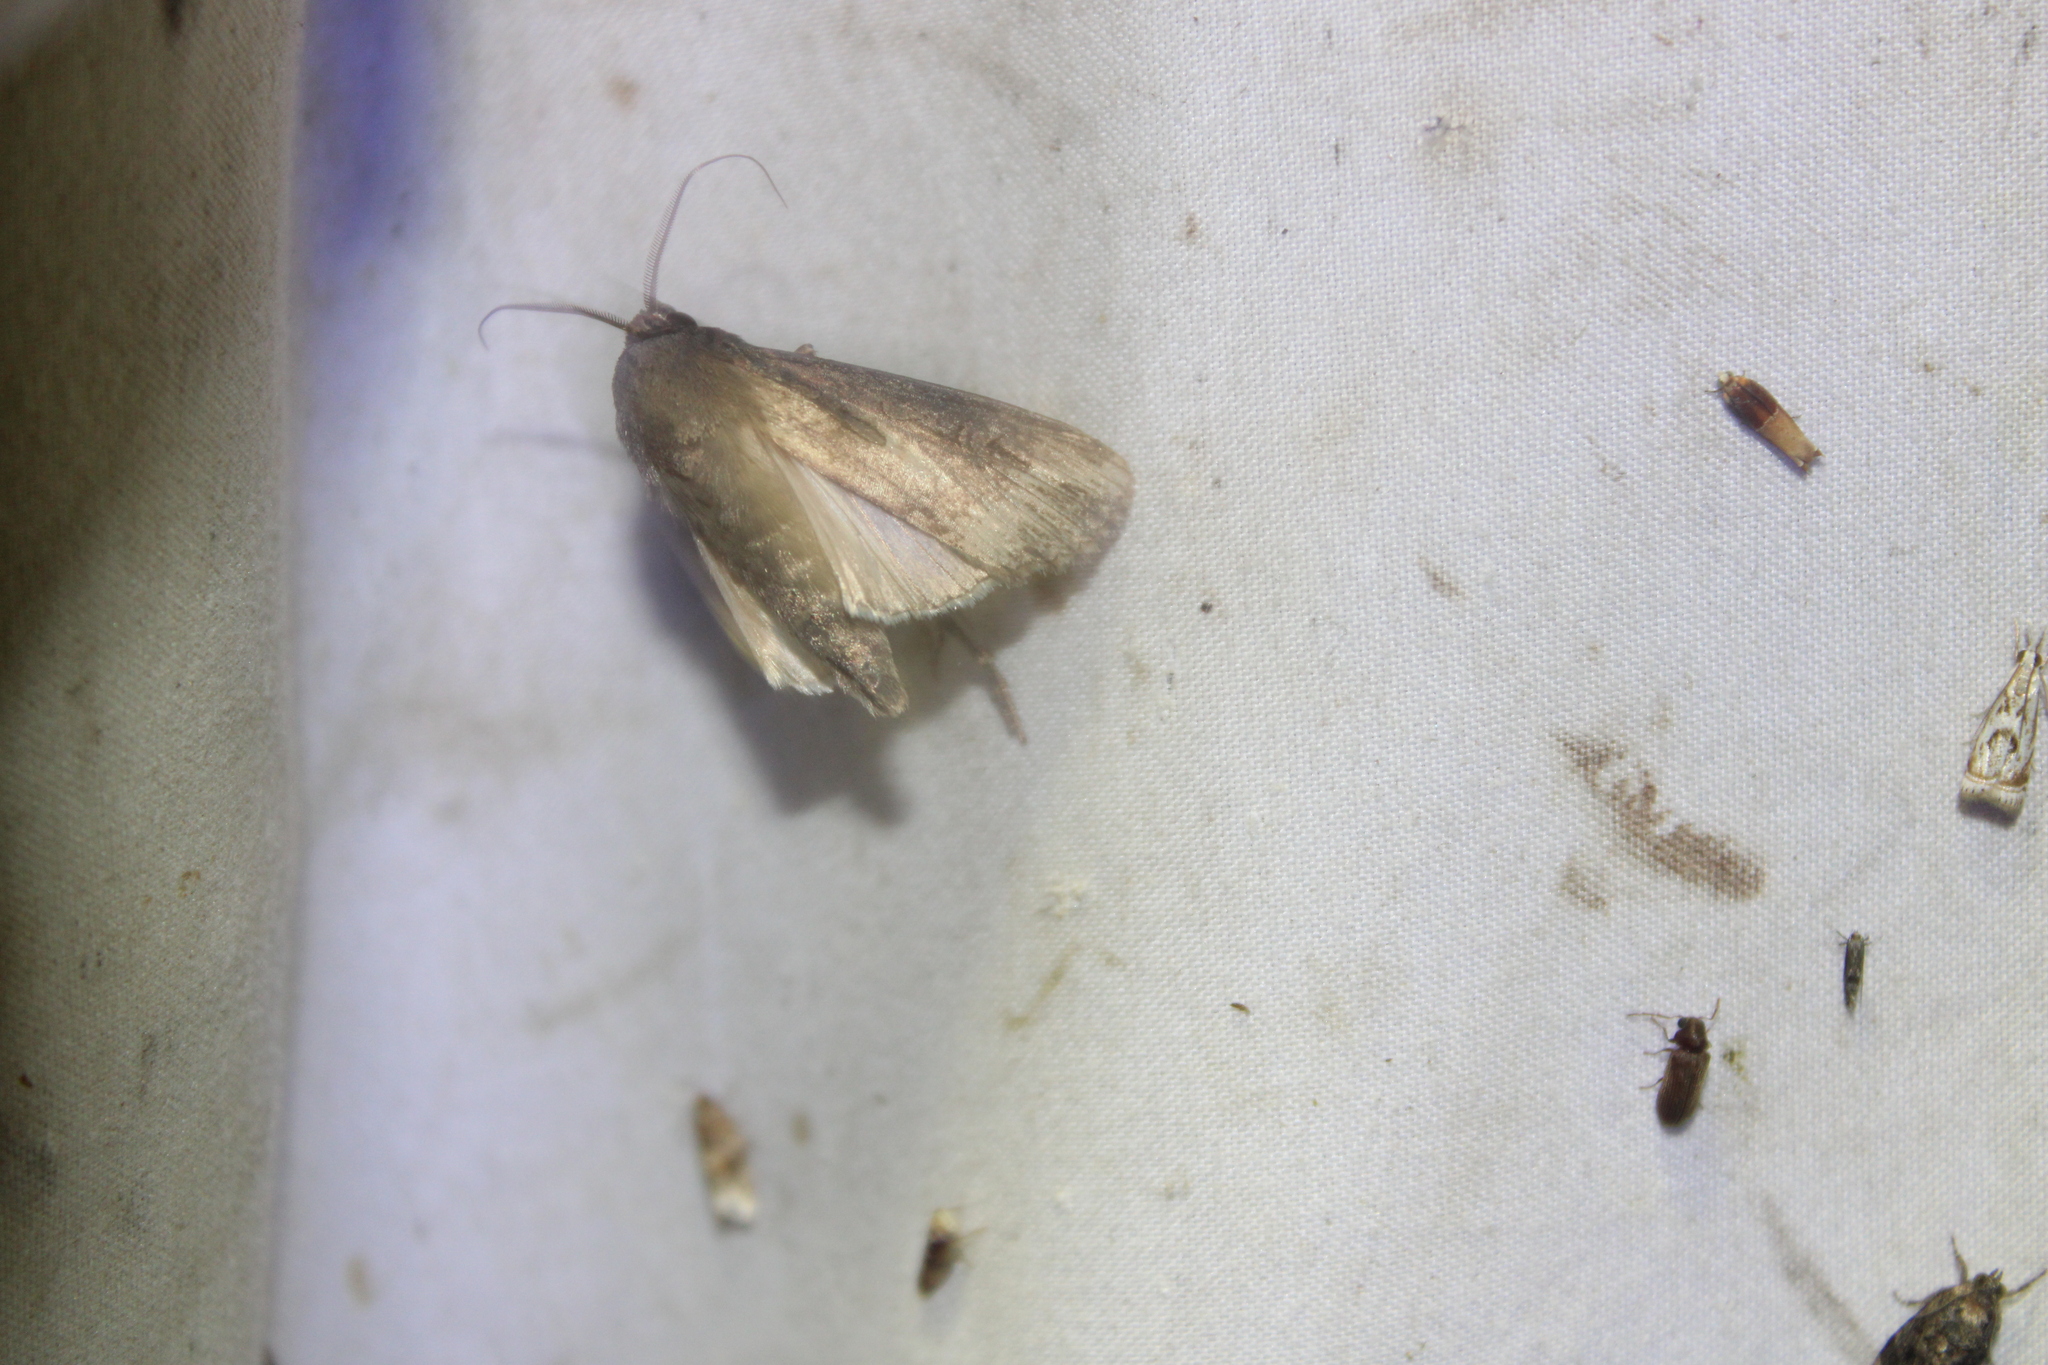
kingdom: Animalia
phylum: Arthropoda
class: Insecta
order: Lepidoptera
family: Noctuidae
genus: Agrotis
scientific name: Agrotis ipsilon
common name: Dark sword-grass
